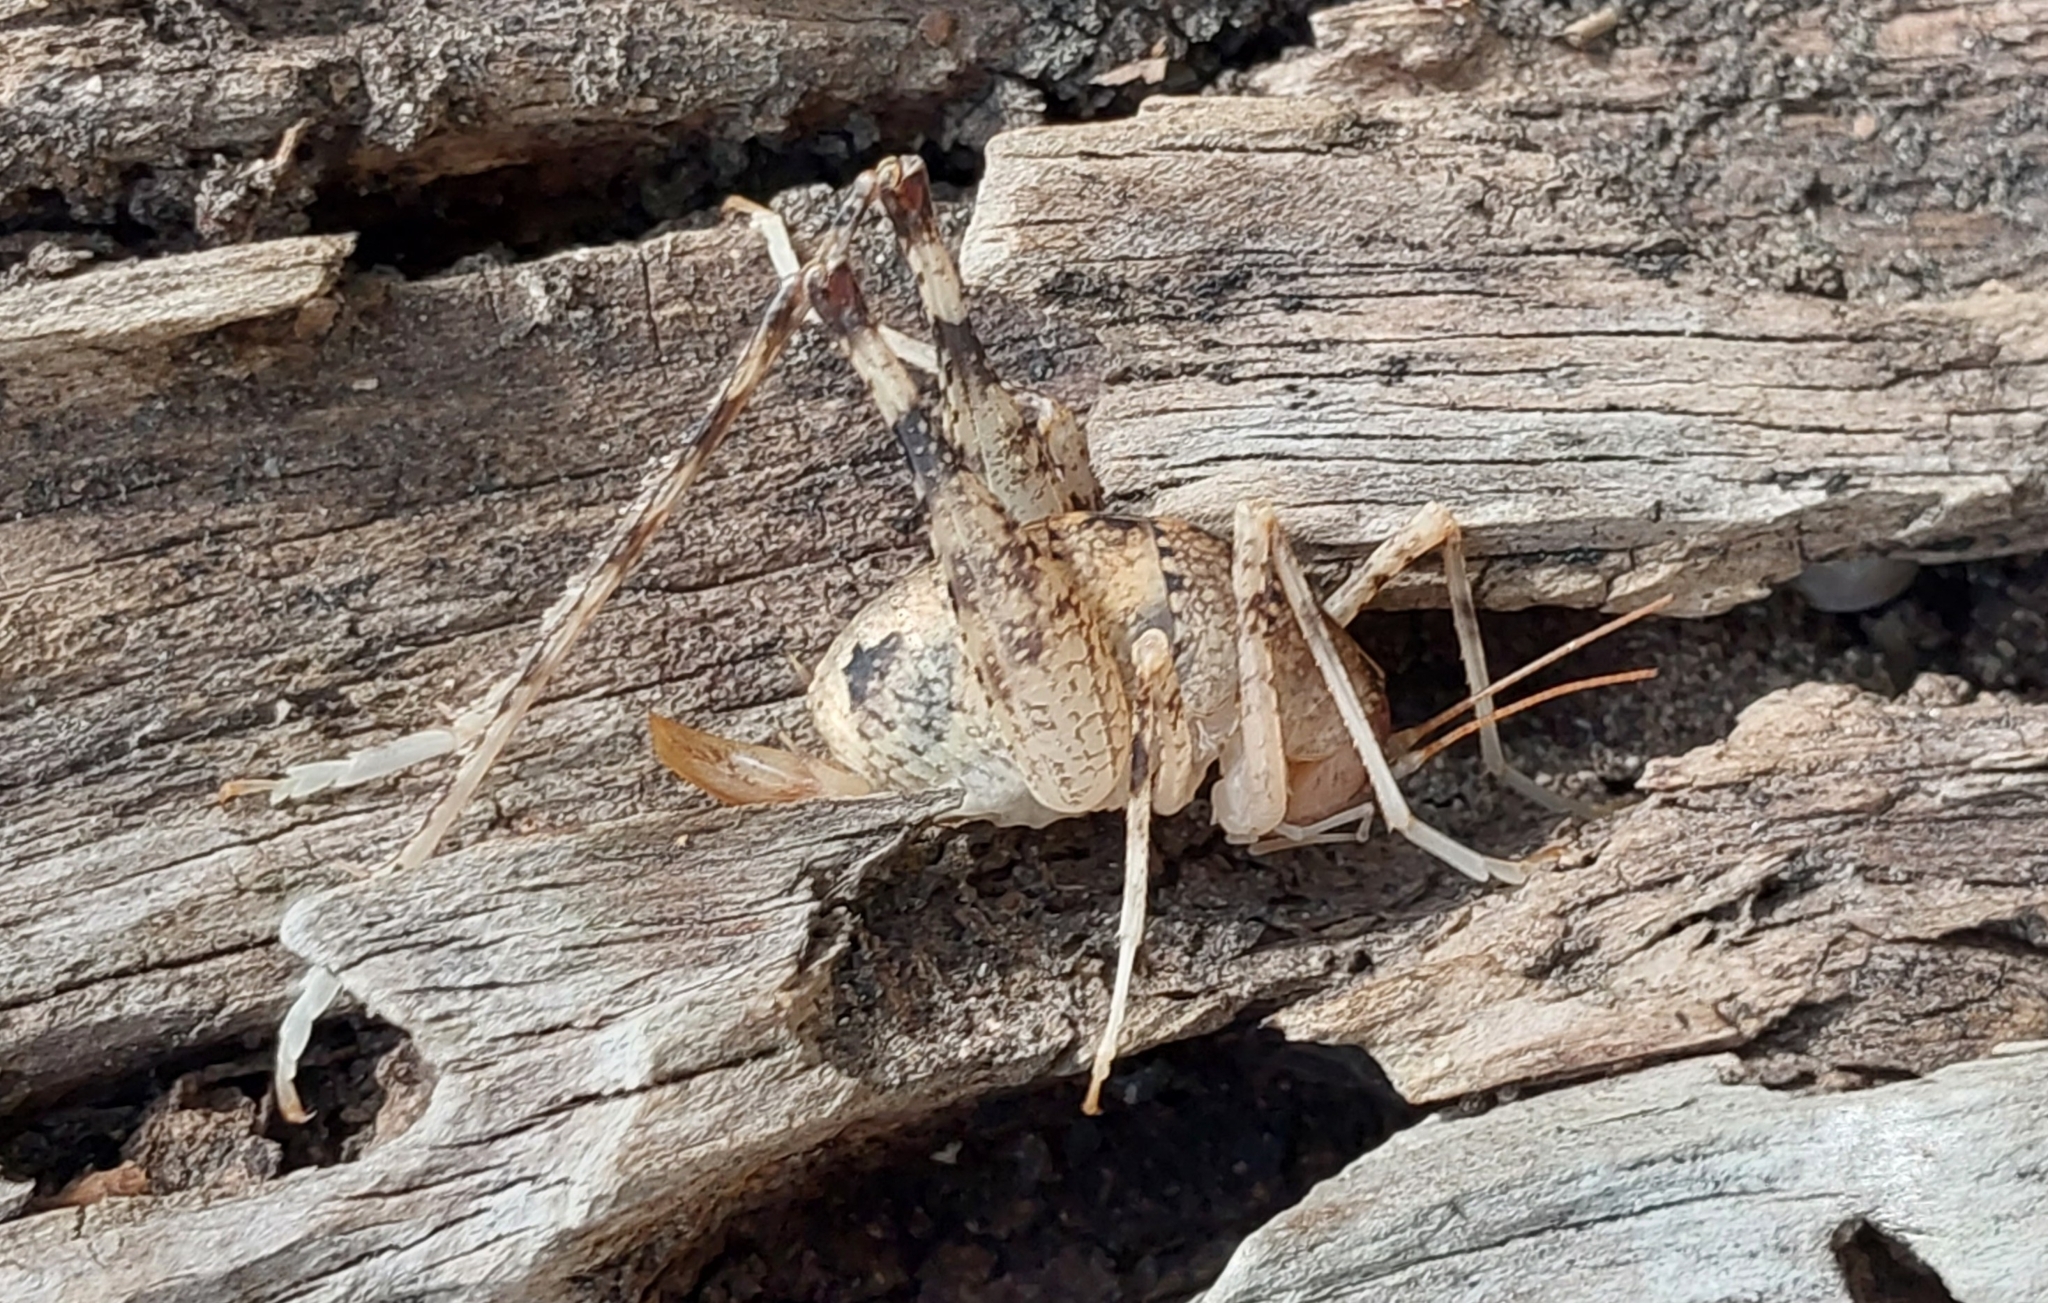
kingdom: Animalia
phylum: Arthropoda
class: Insecta
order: Orthoptera
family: Rhaphidophoridae
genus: Troglophilus
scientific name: Troglophilus spinulosus
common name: Spiny cave-cricket
